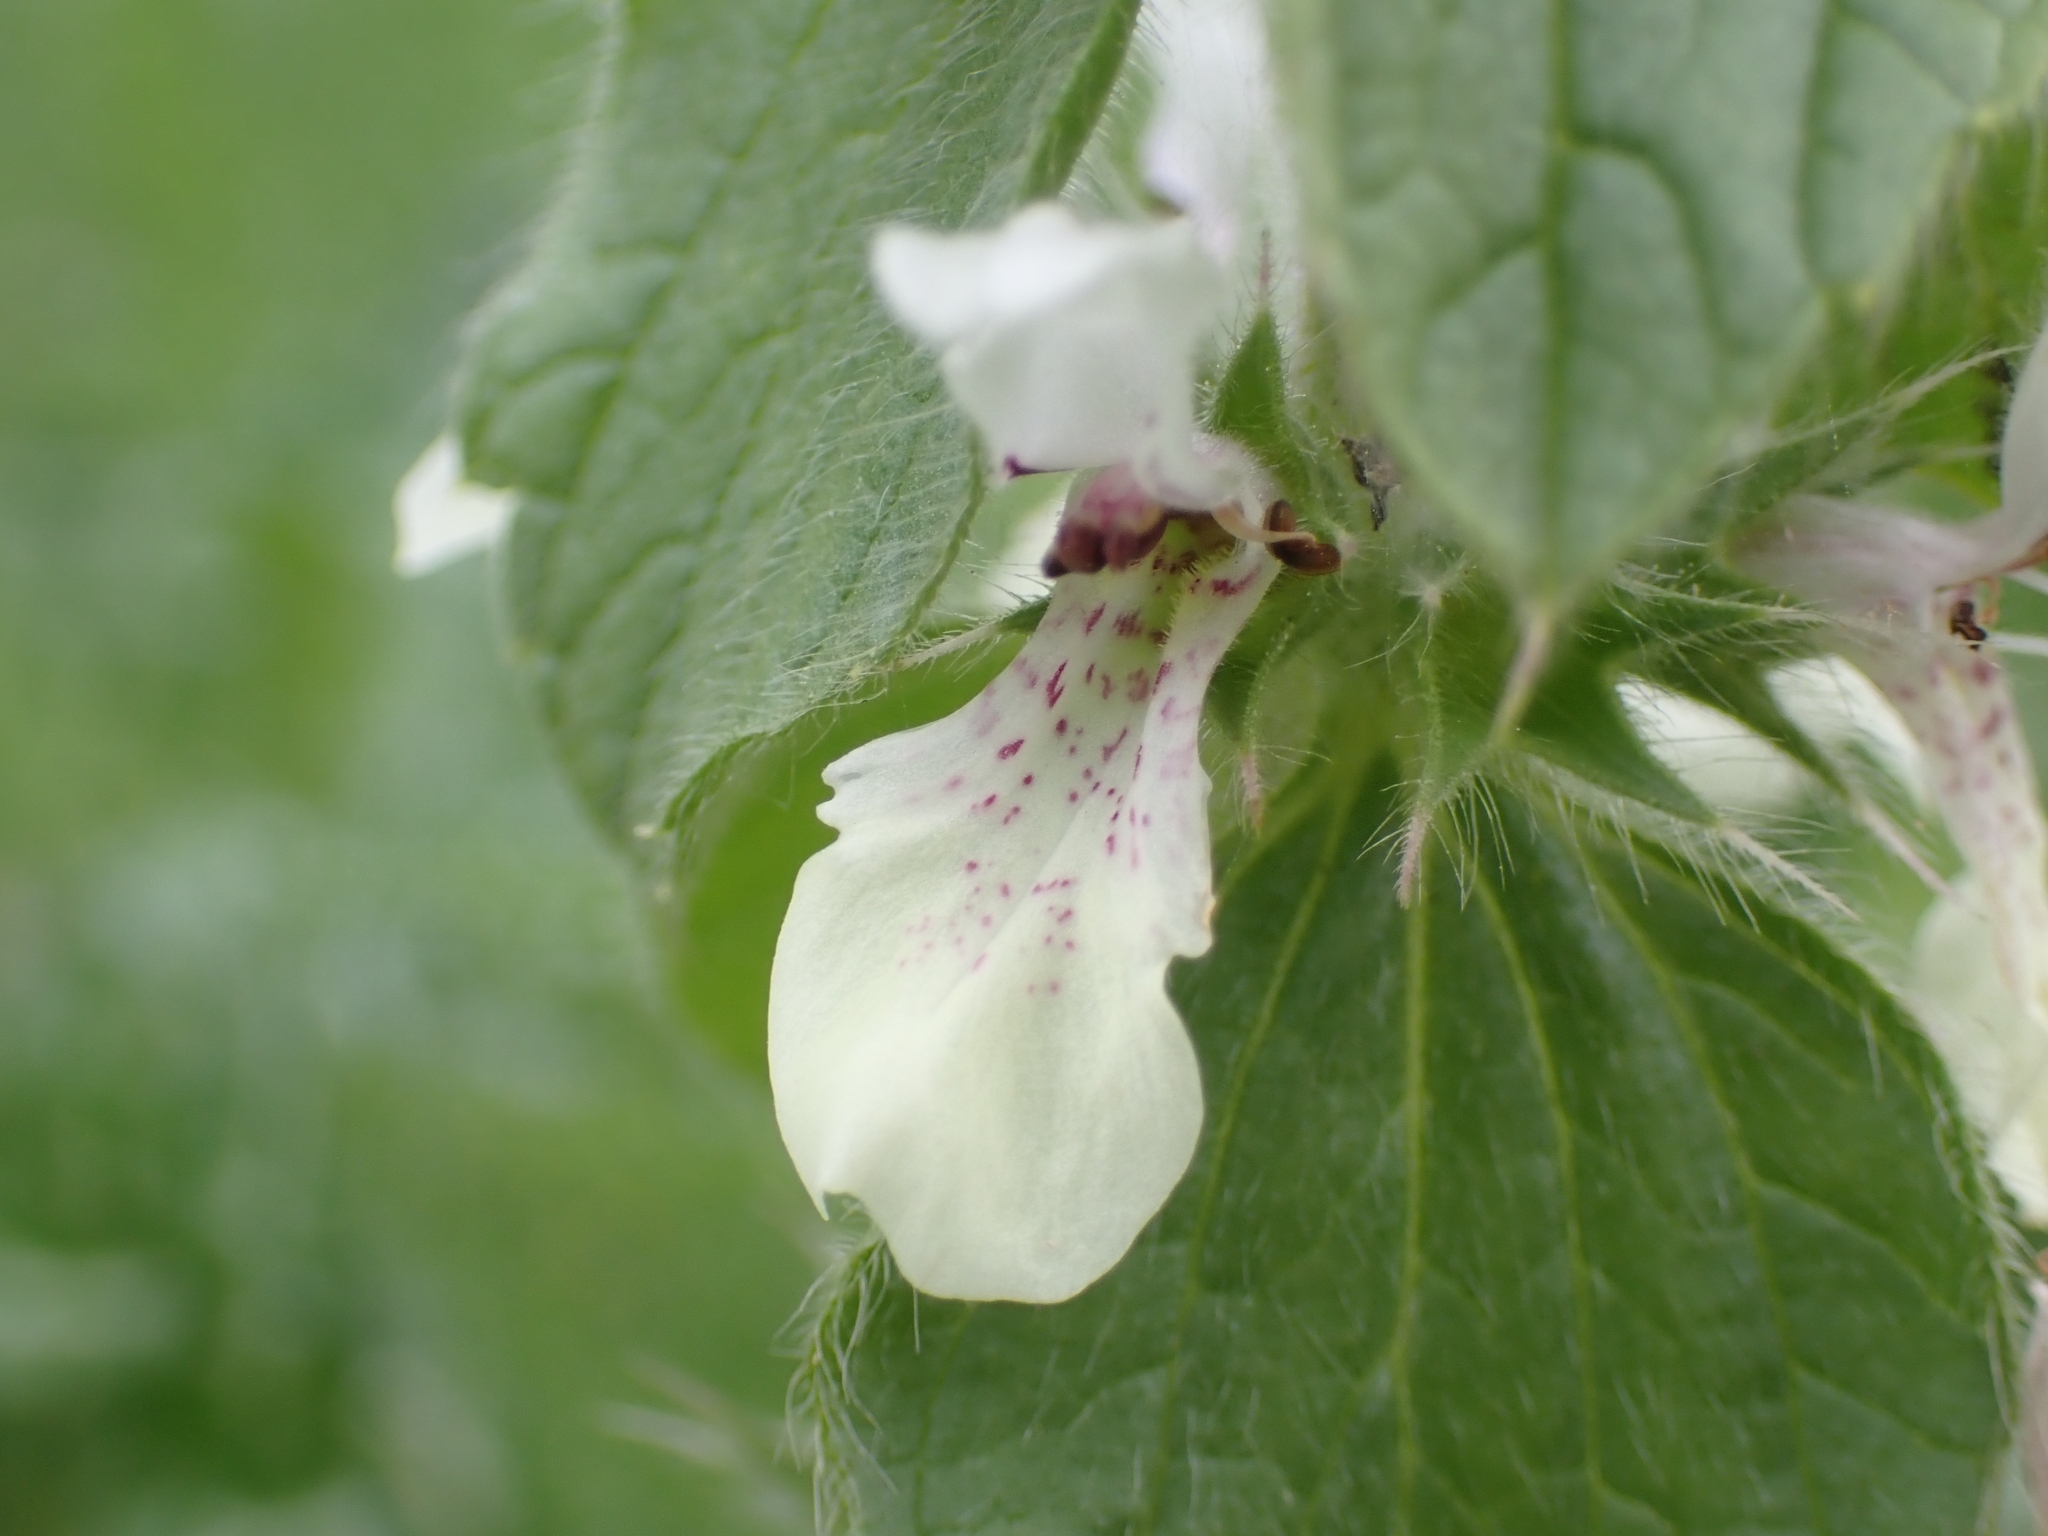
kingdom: Plantae
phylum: Tracheophyta
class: Magnoliopsida
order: Lamiales
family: Lamiaceae
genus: Stachys
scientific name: Stachys ocymastrum
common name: Italian hedgenettle
